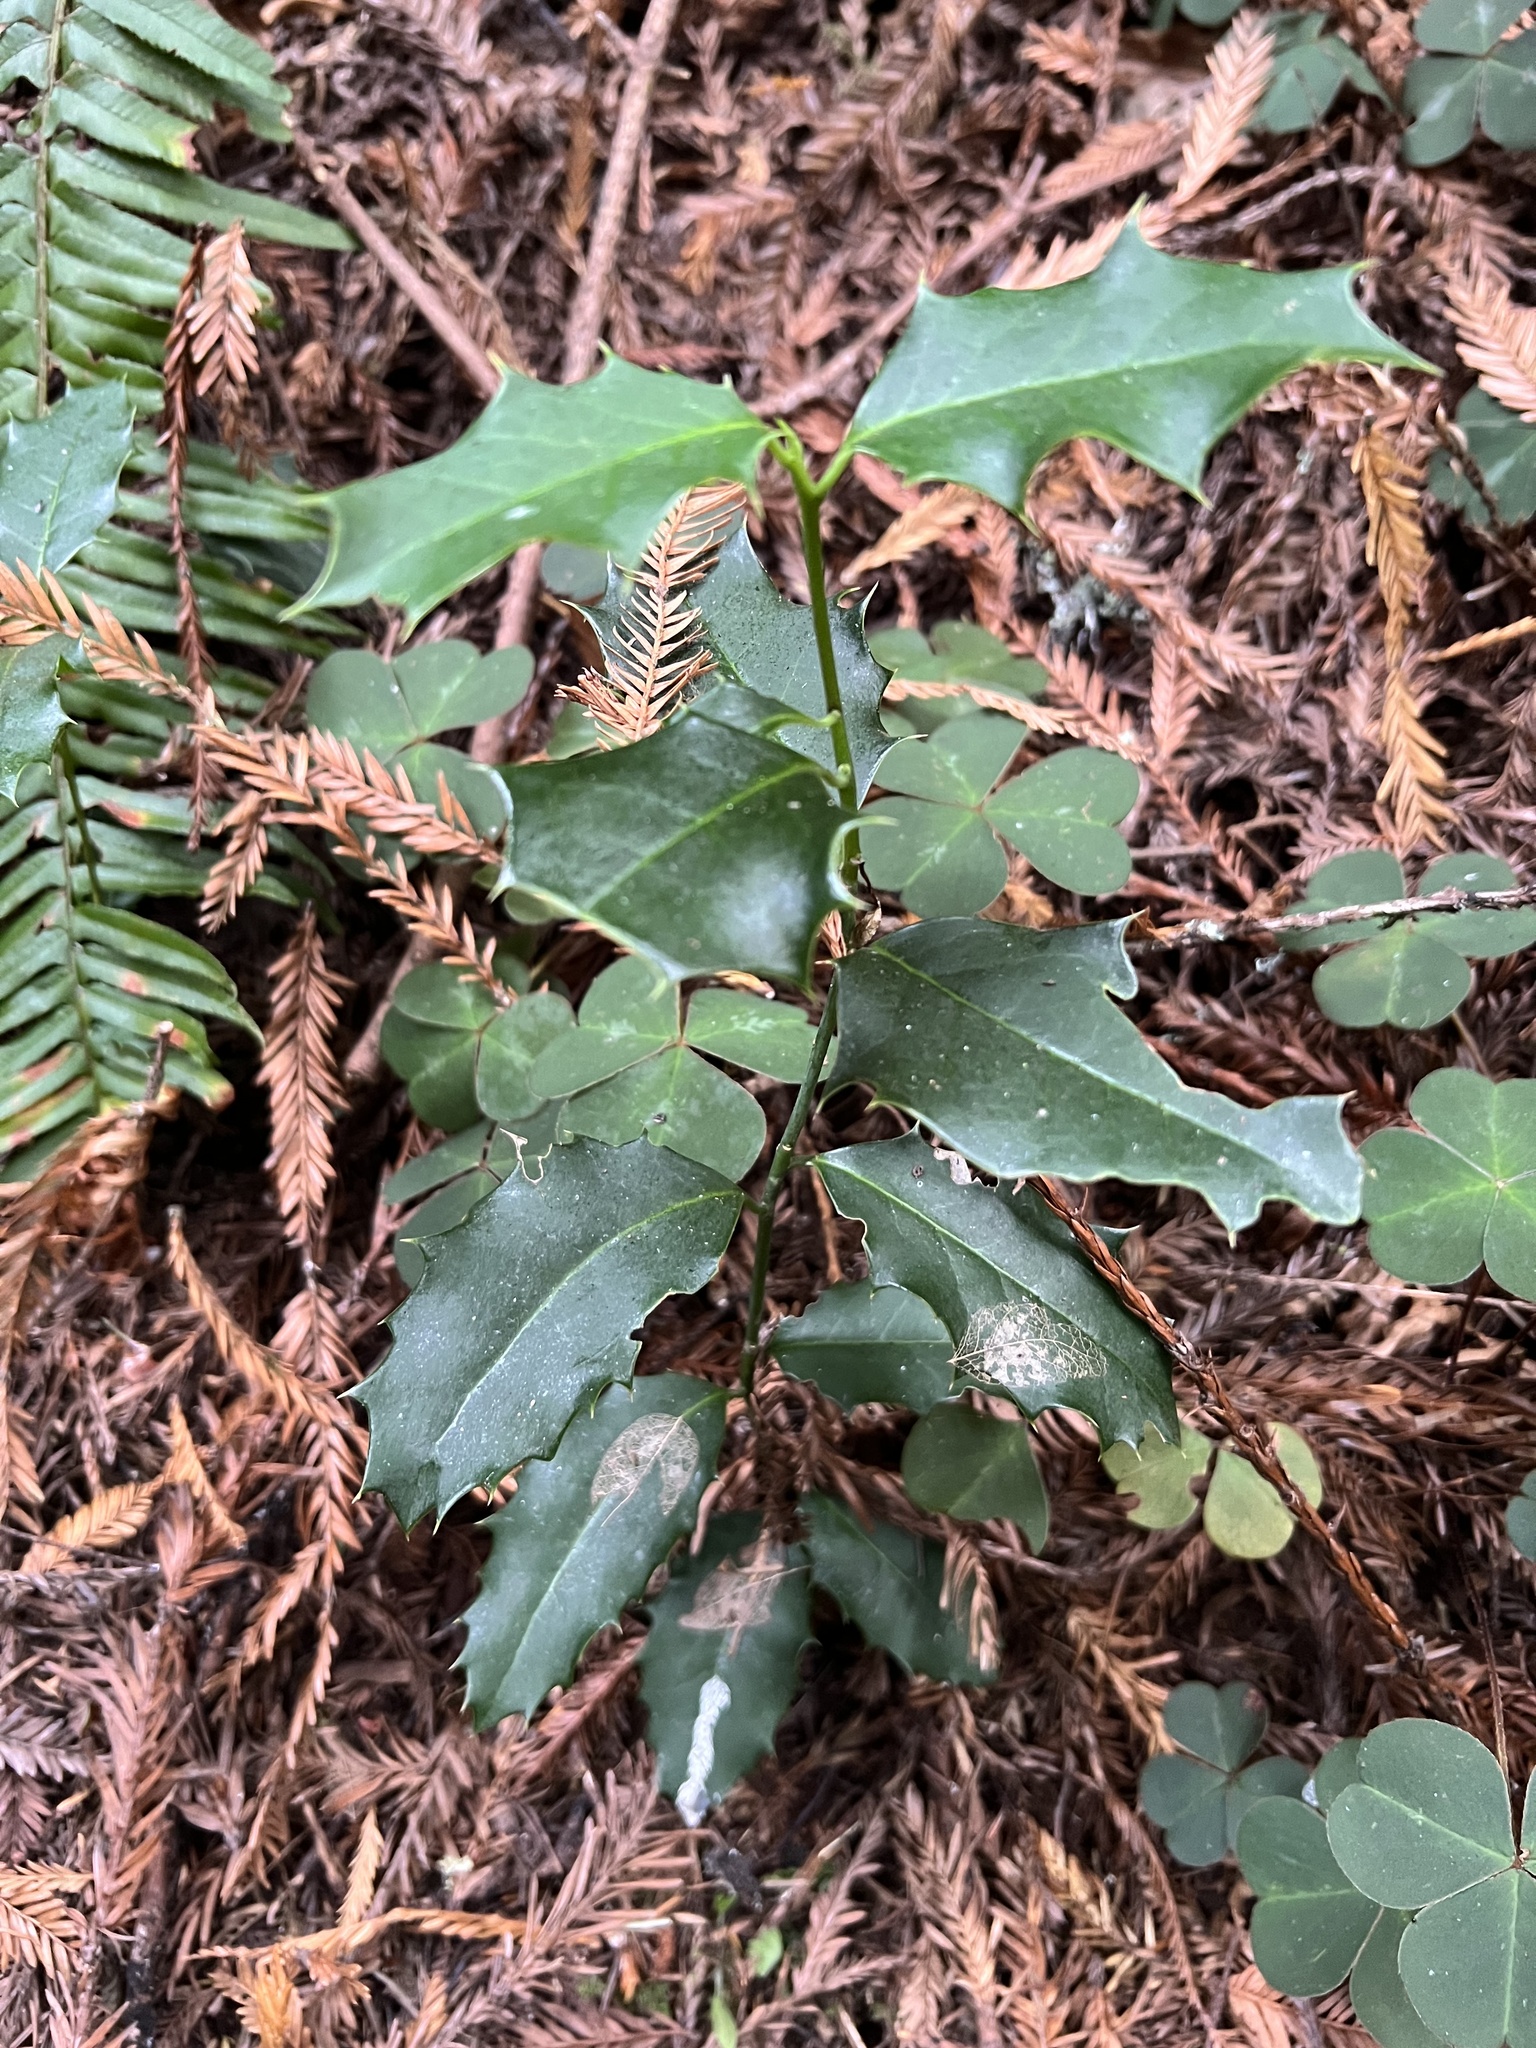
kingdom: Plantae
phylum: Tracheophyta
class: Magnoliopsida
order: Aquifoliales
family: Aquifoliaceae
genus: Ilex
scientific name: Ilex aquifolium
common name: English holly
